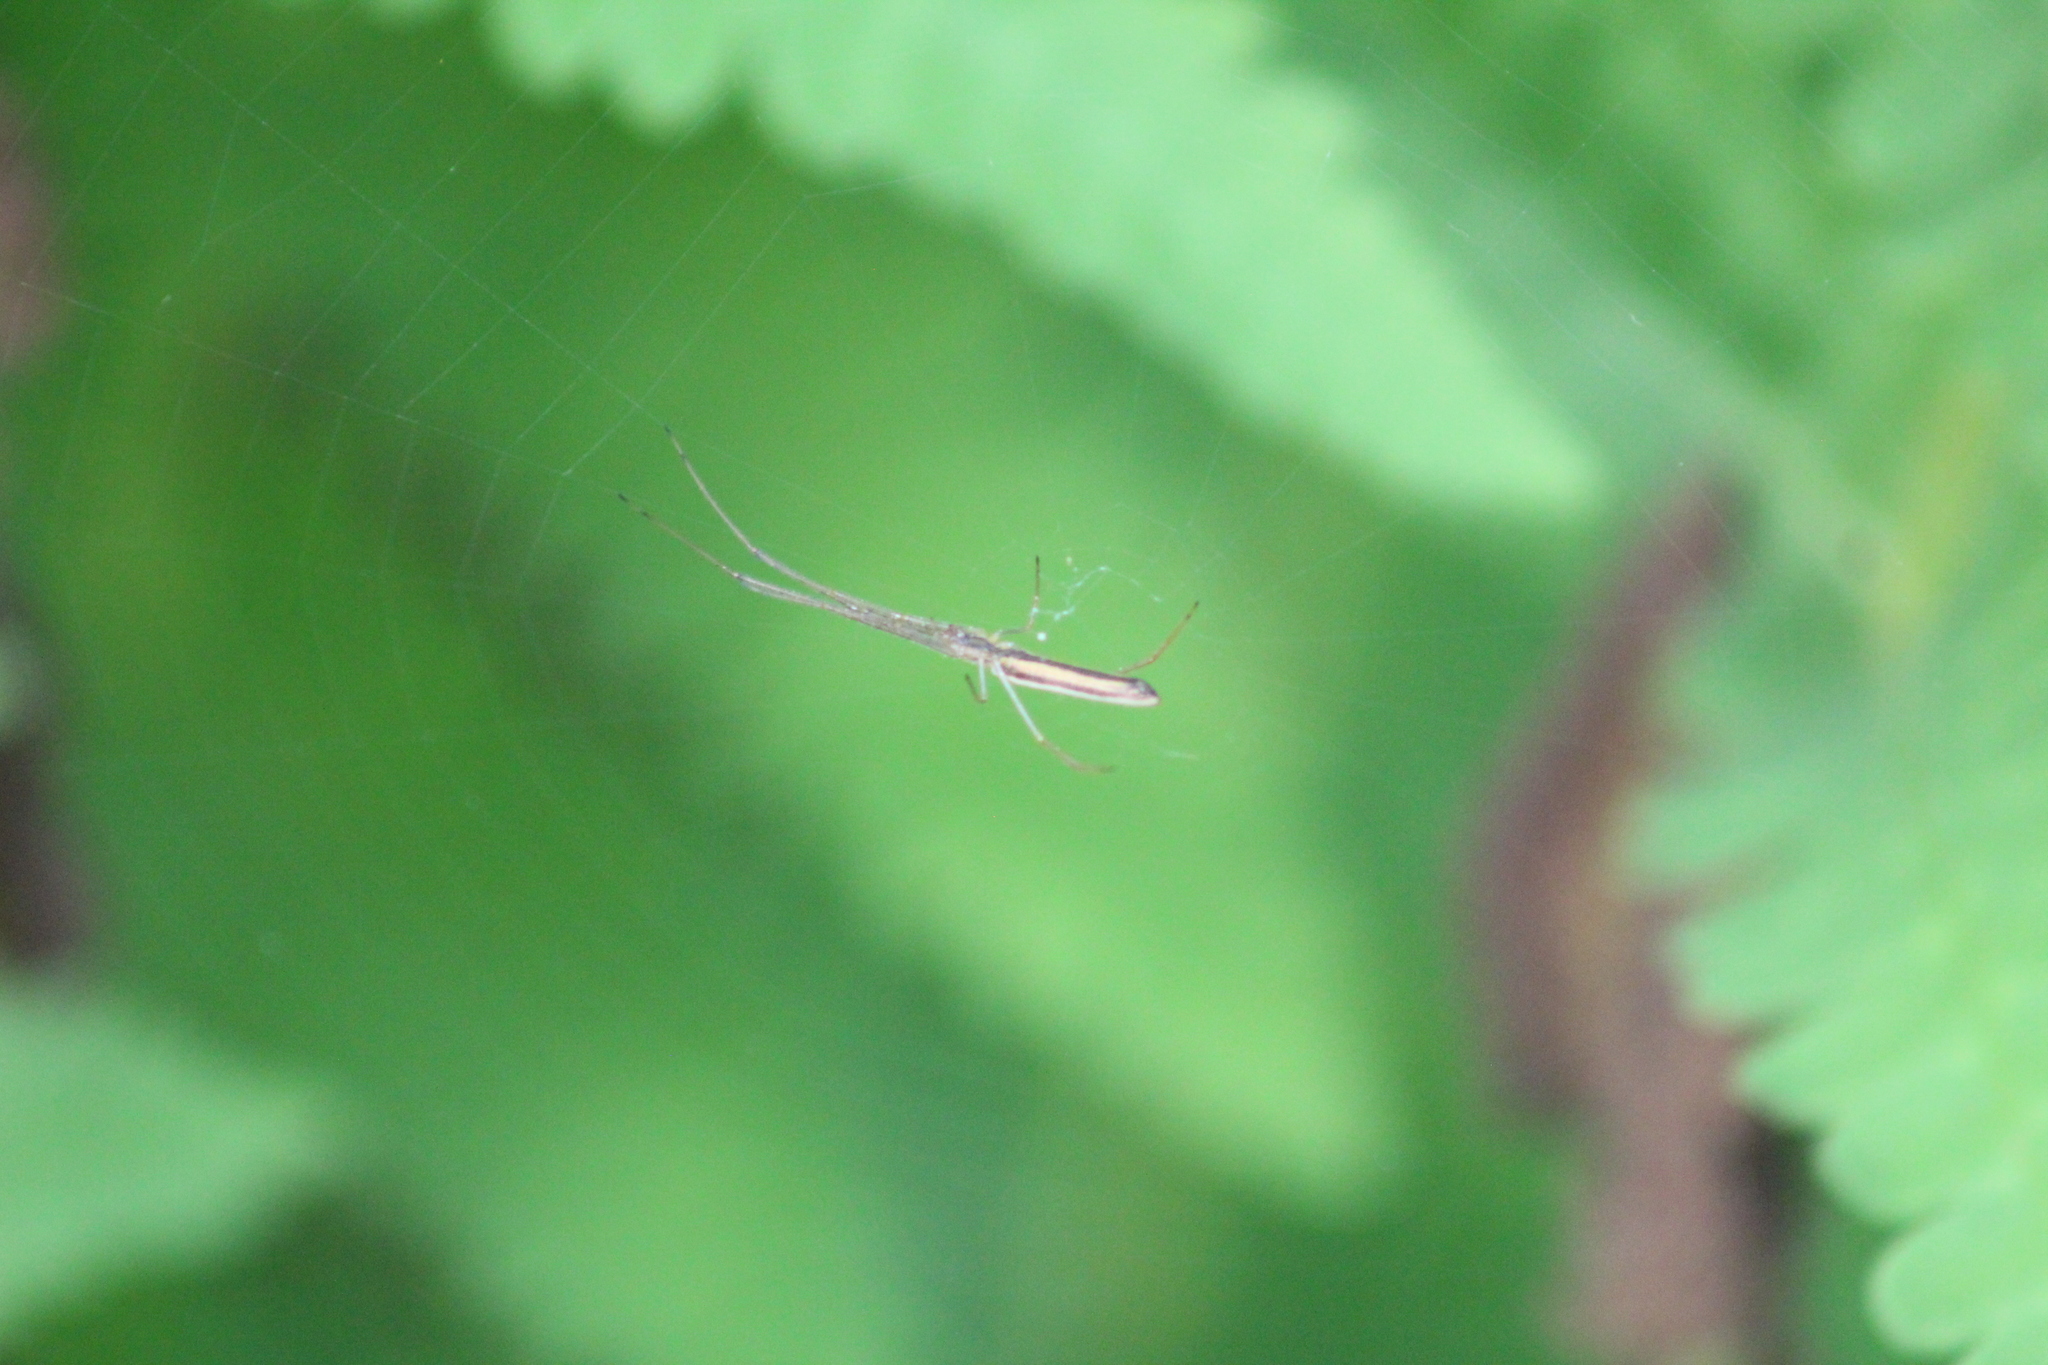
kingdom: Animalia
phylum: Arthropoda
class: Arachnida
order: Araneae
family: Tetragnathidae
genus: Tetragnatha
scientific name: Tetragnatha
